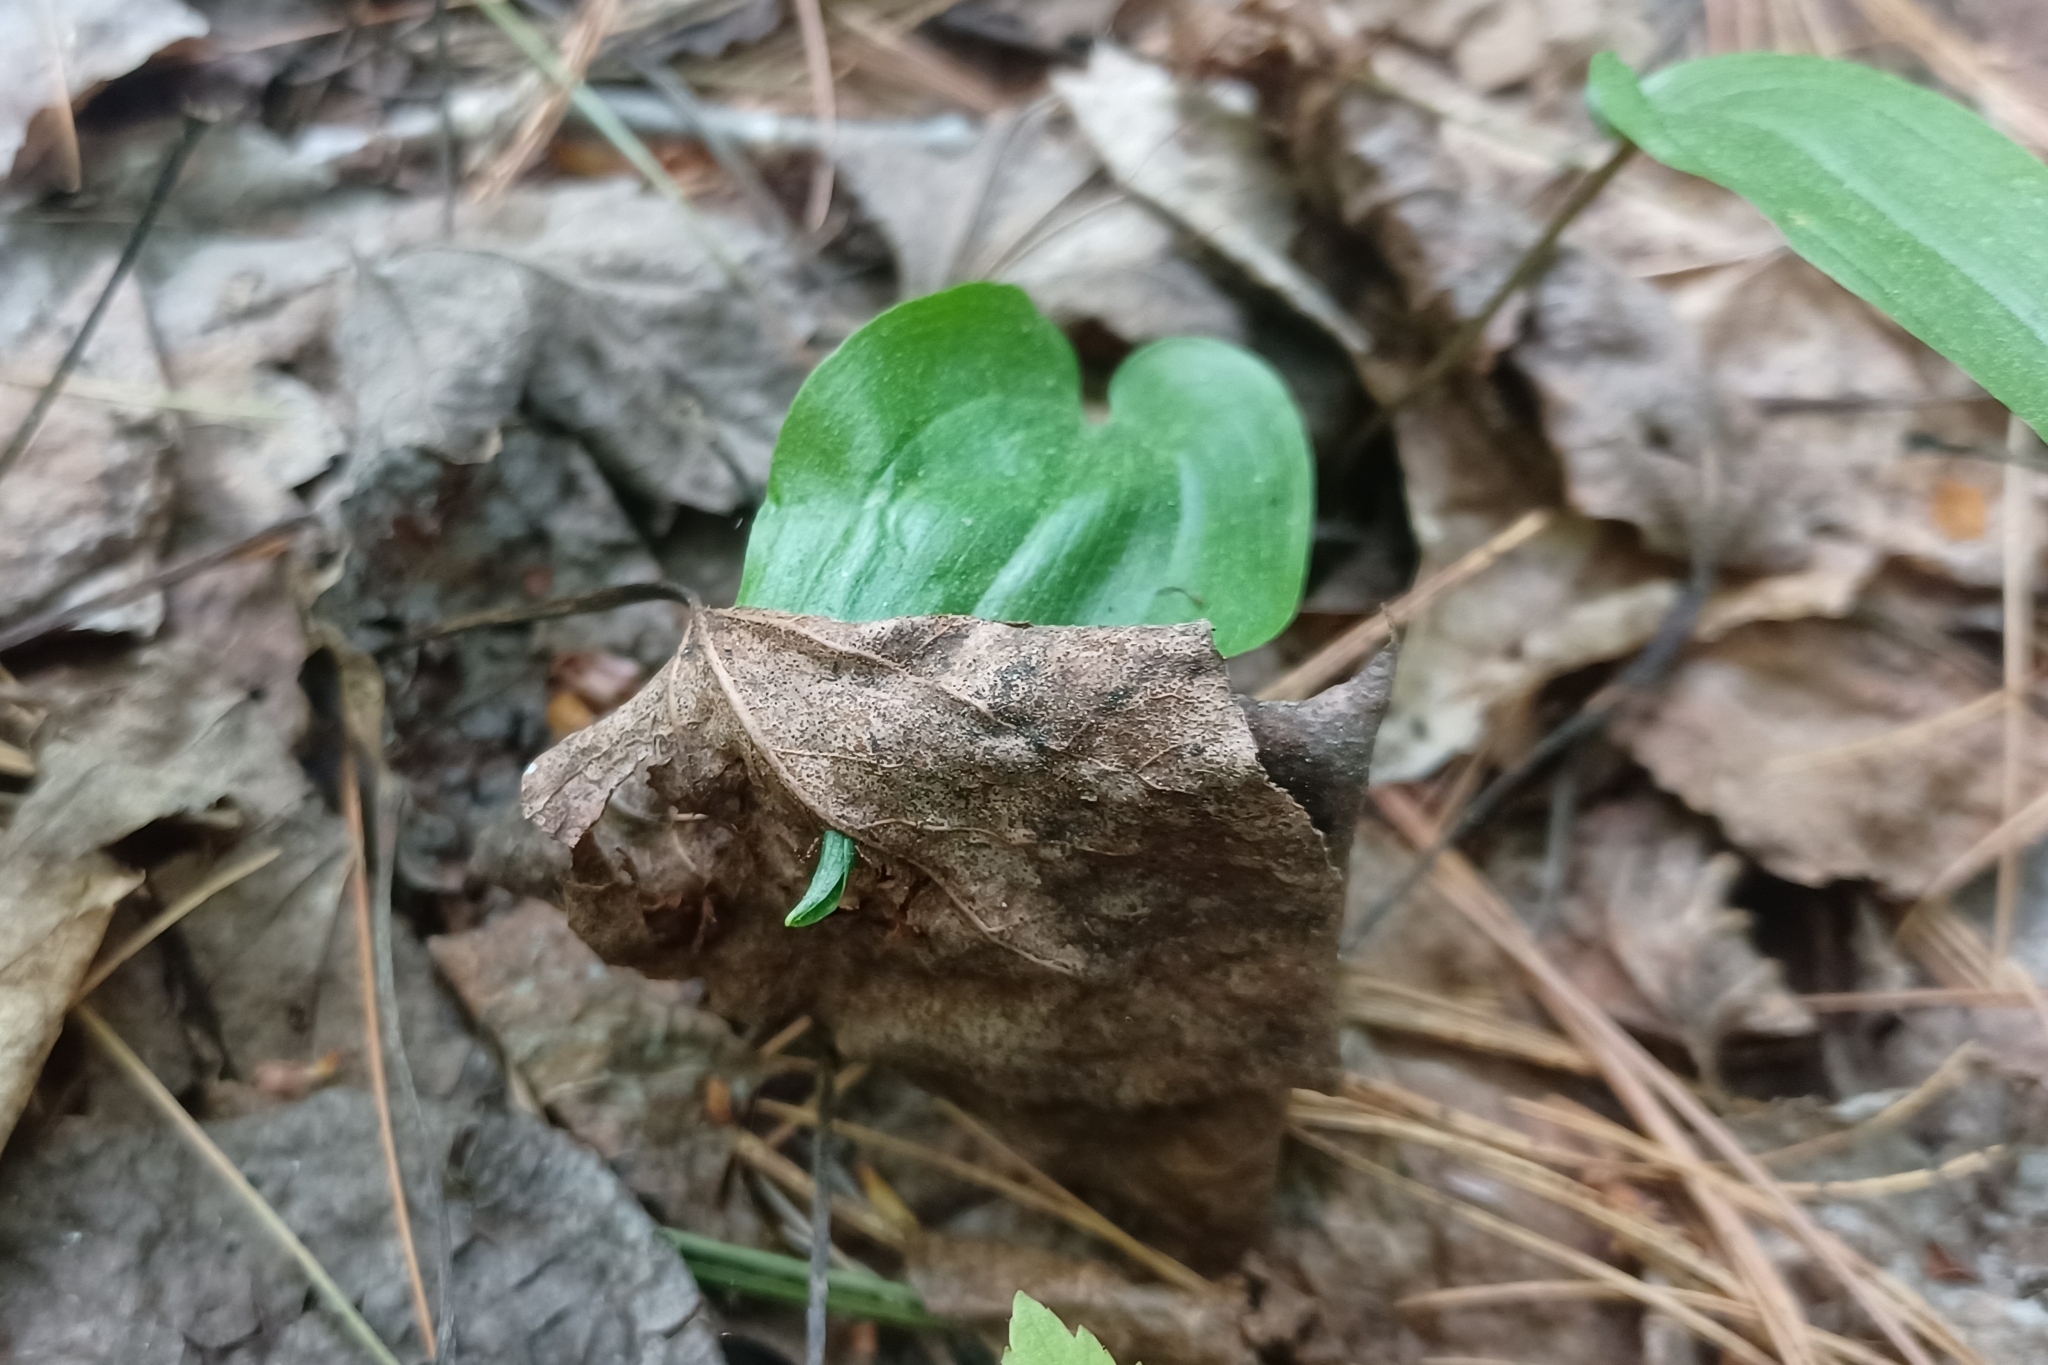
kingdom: Plantae
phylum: Tracheophyta
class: Liliopsida
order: Asparagales
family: Asparagaceae
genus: Maianthemum
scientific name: Maianthemum canadense
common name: False lily-of-the-valley
